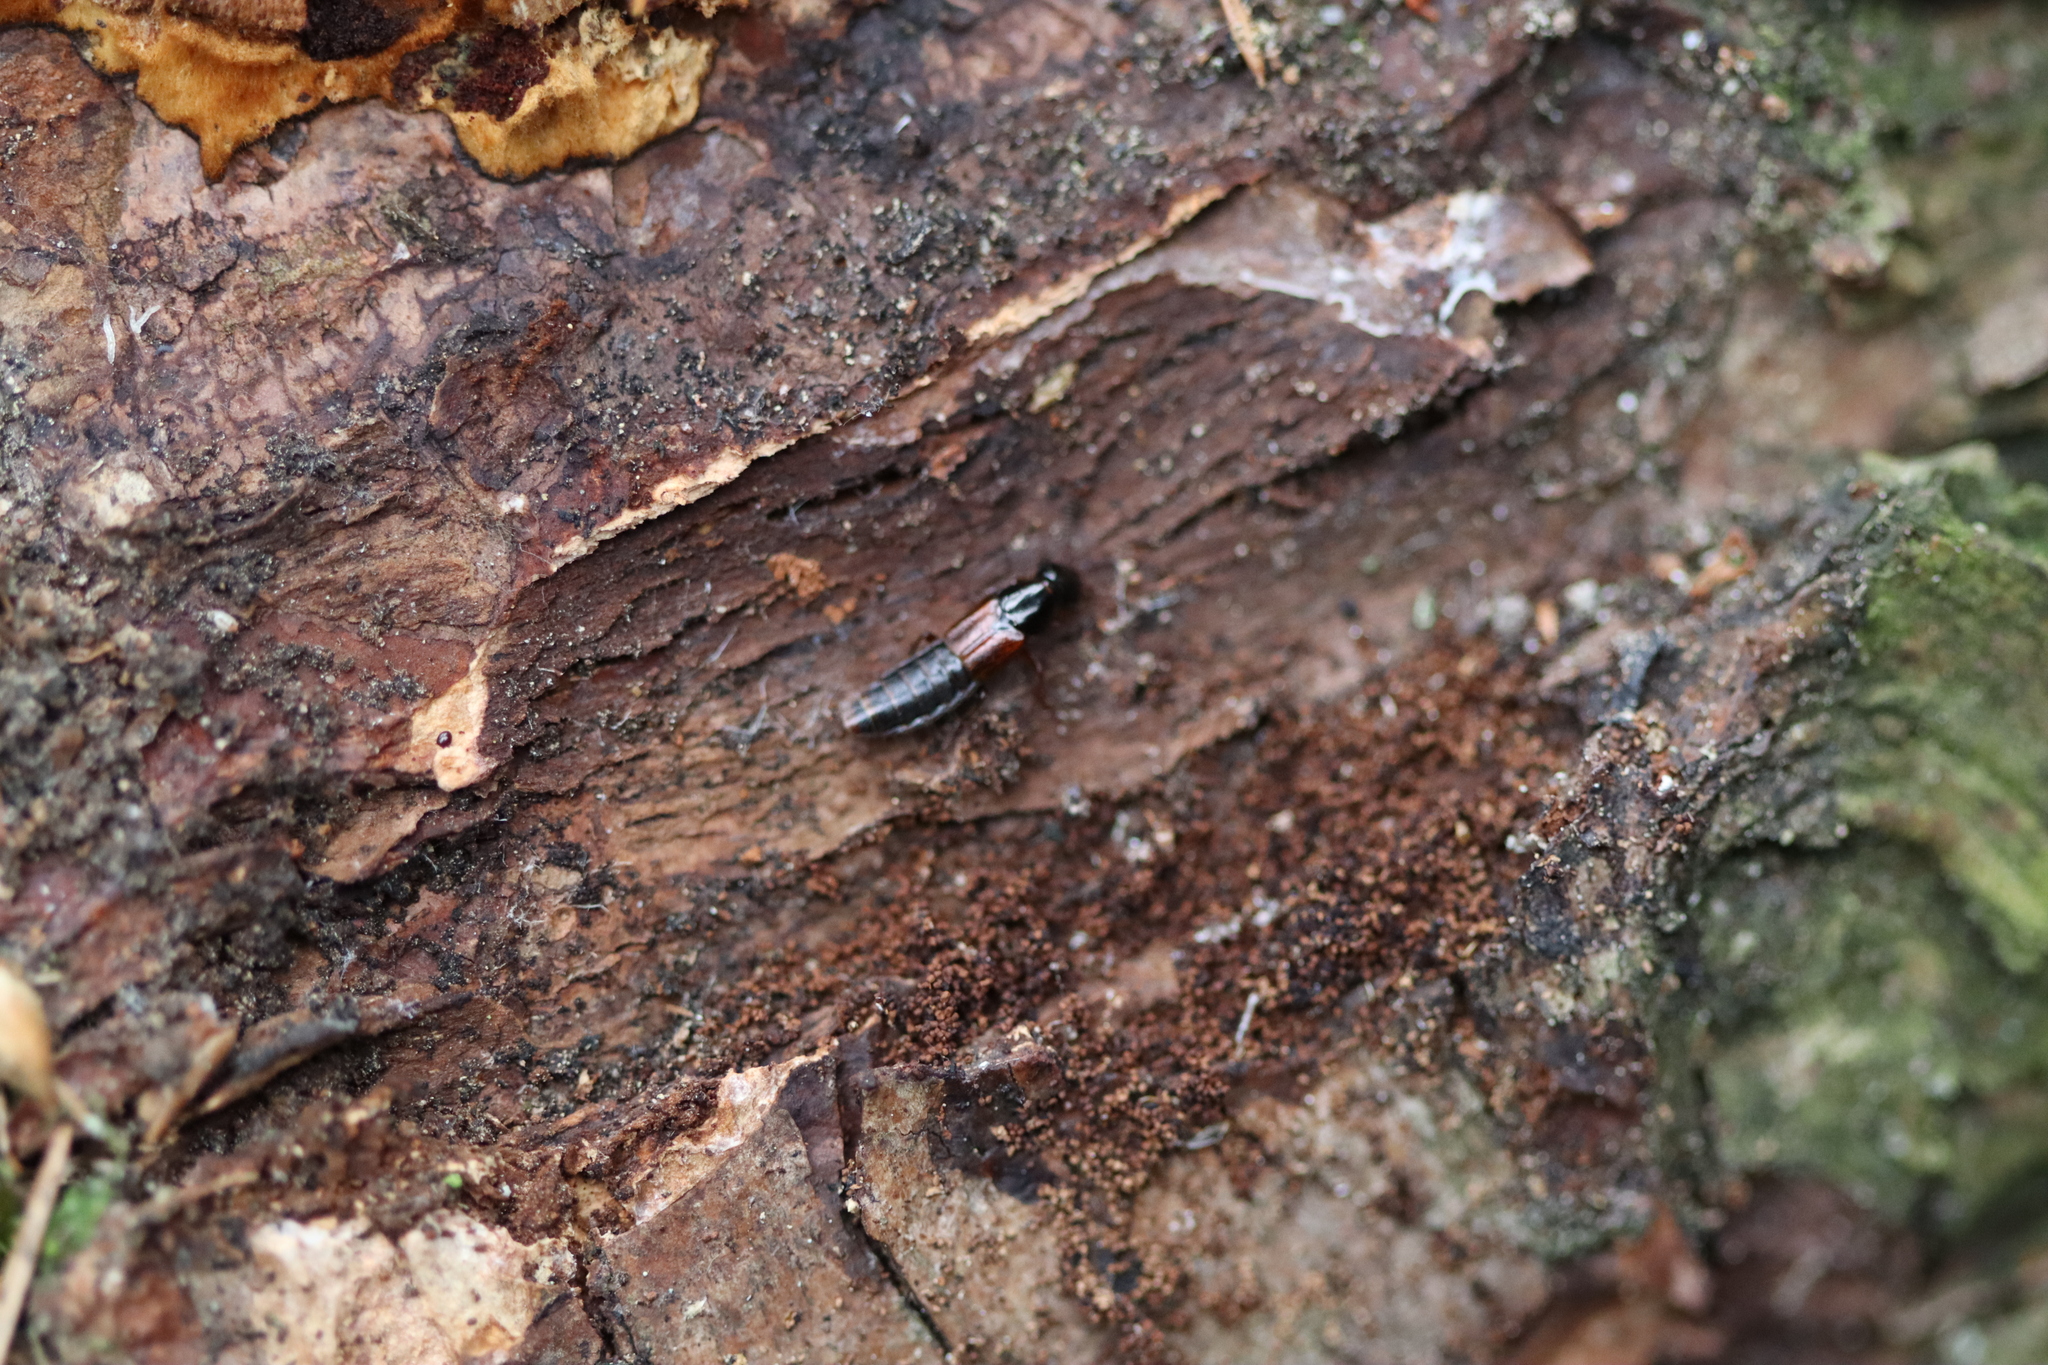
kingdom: Animalia
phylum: Arthropoda
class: Insecta
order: Coleoptera
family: Staphylinidae
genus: Quedionuchus
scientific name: Quedionuchus glaber
